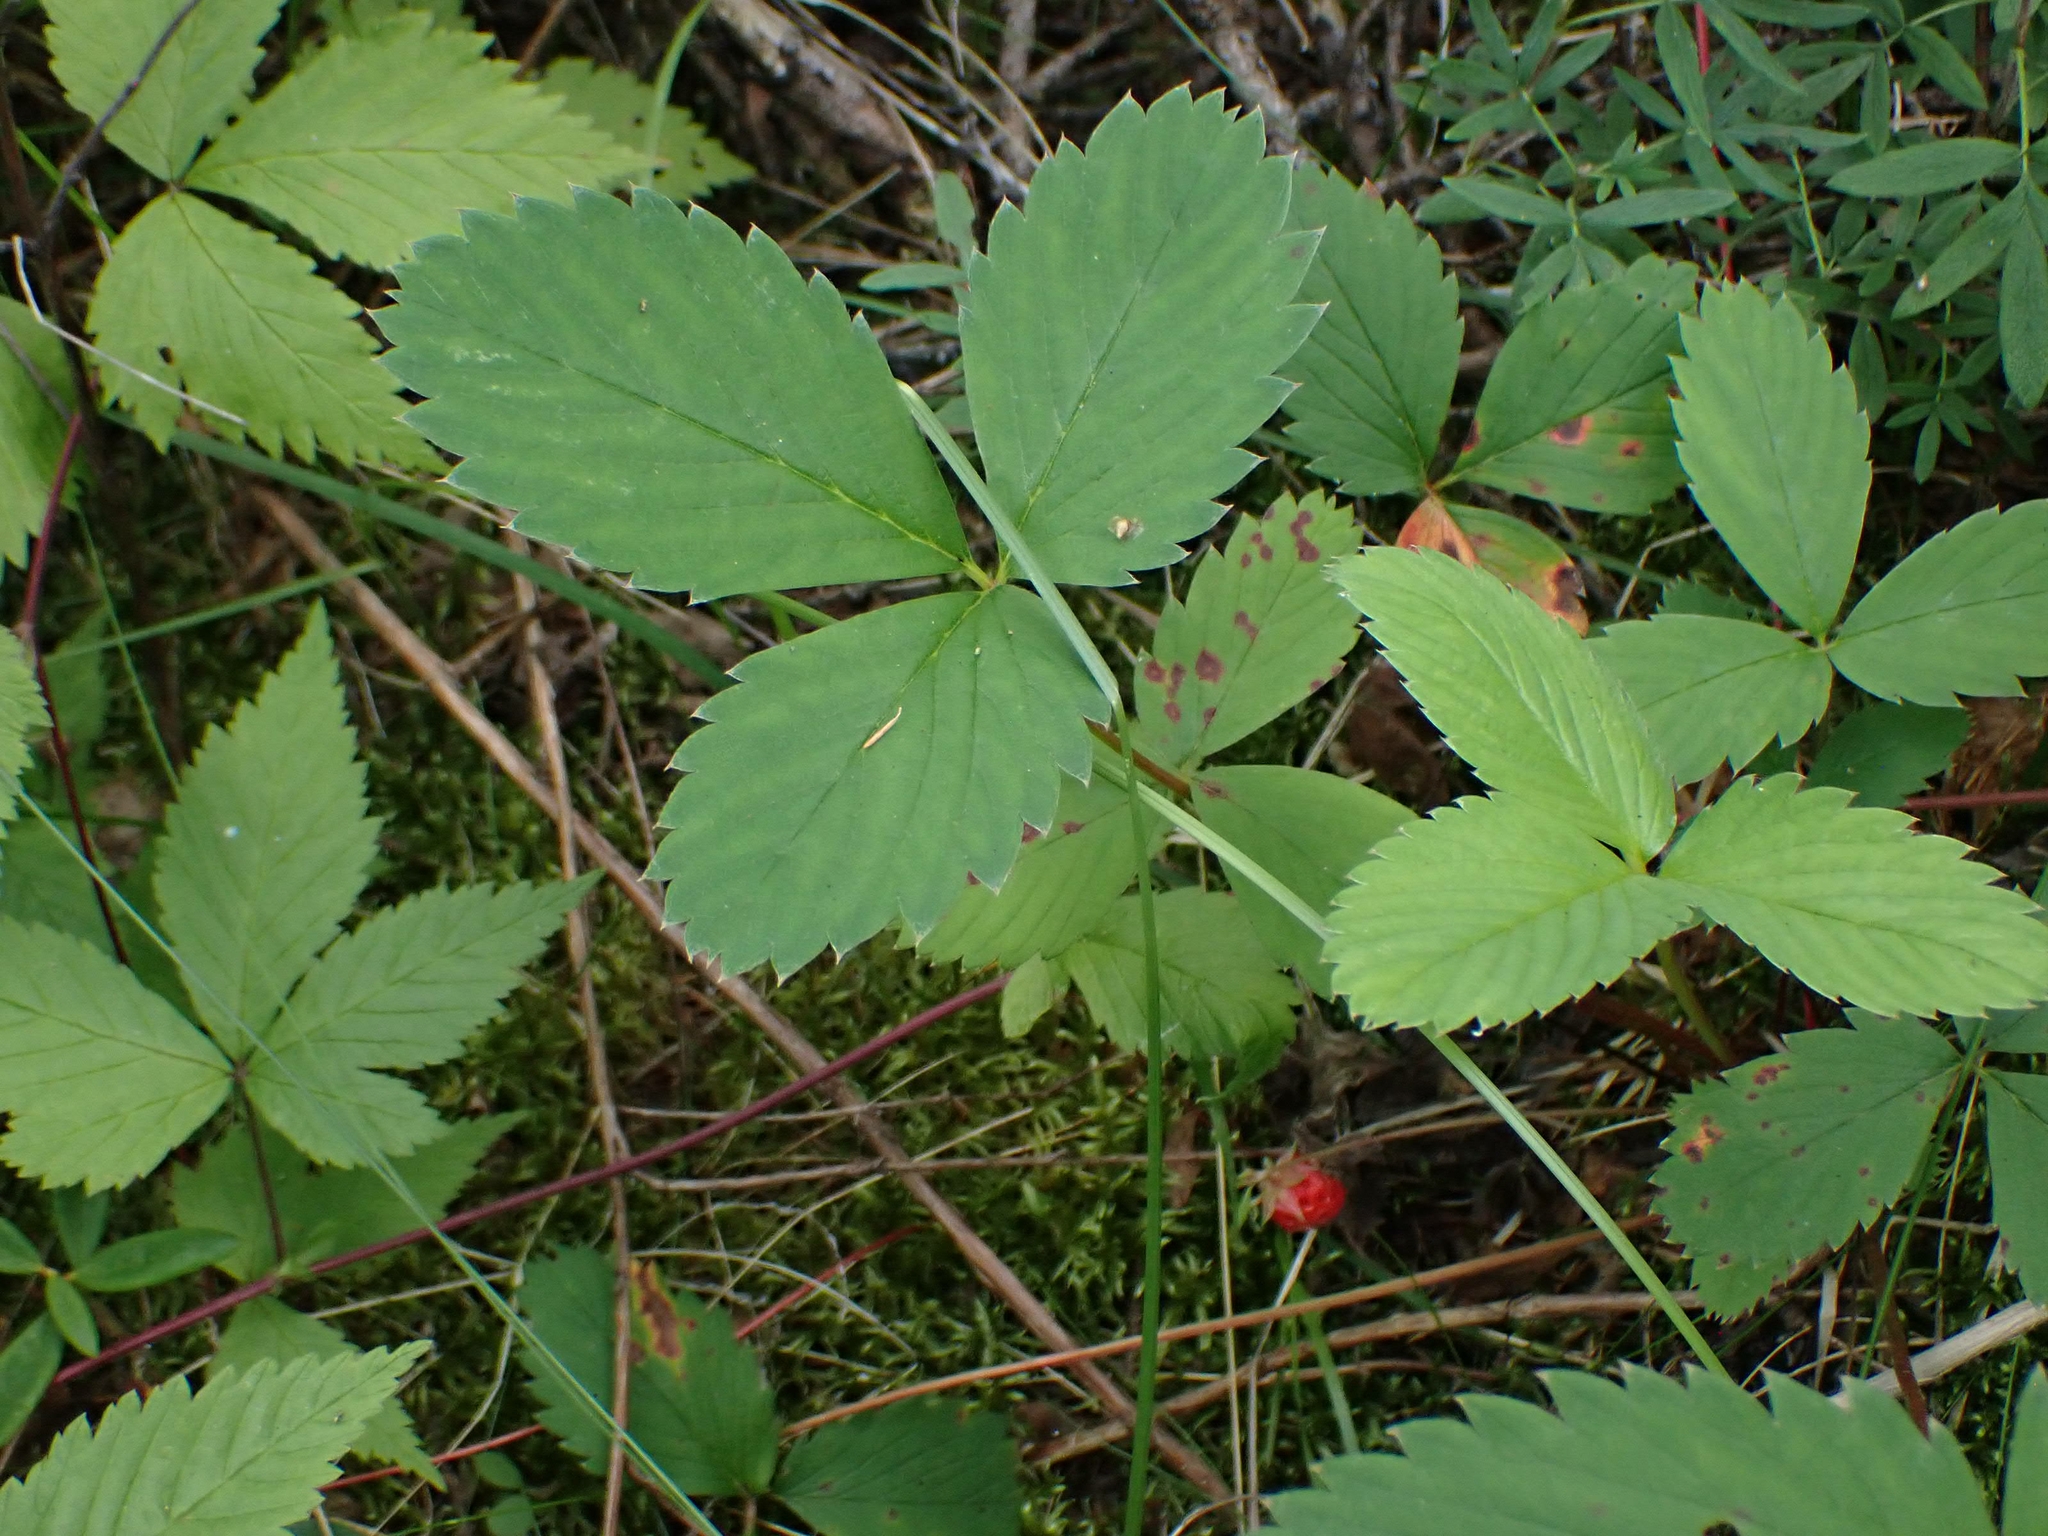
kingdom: Plantae
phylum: Tracheophyta
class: Magnoliopsida
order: Rosales
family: Rosaceae
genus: Fragaria
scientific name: Fragaria virginiana
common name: Thickleaved wild strawberry
